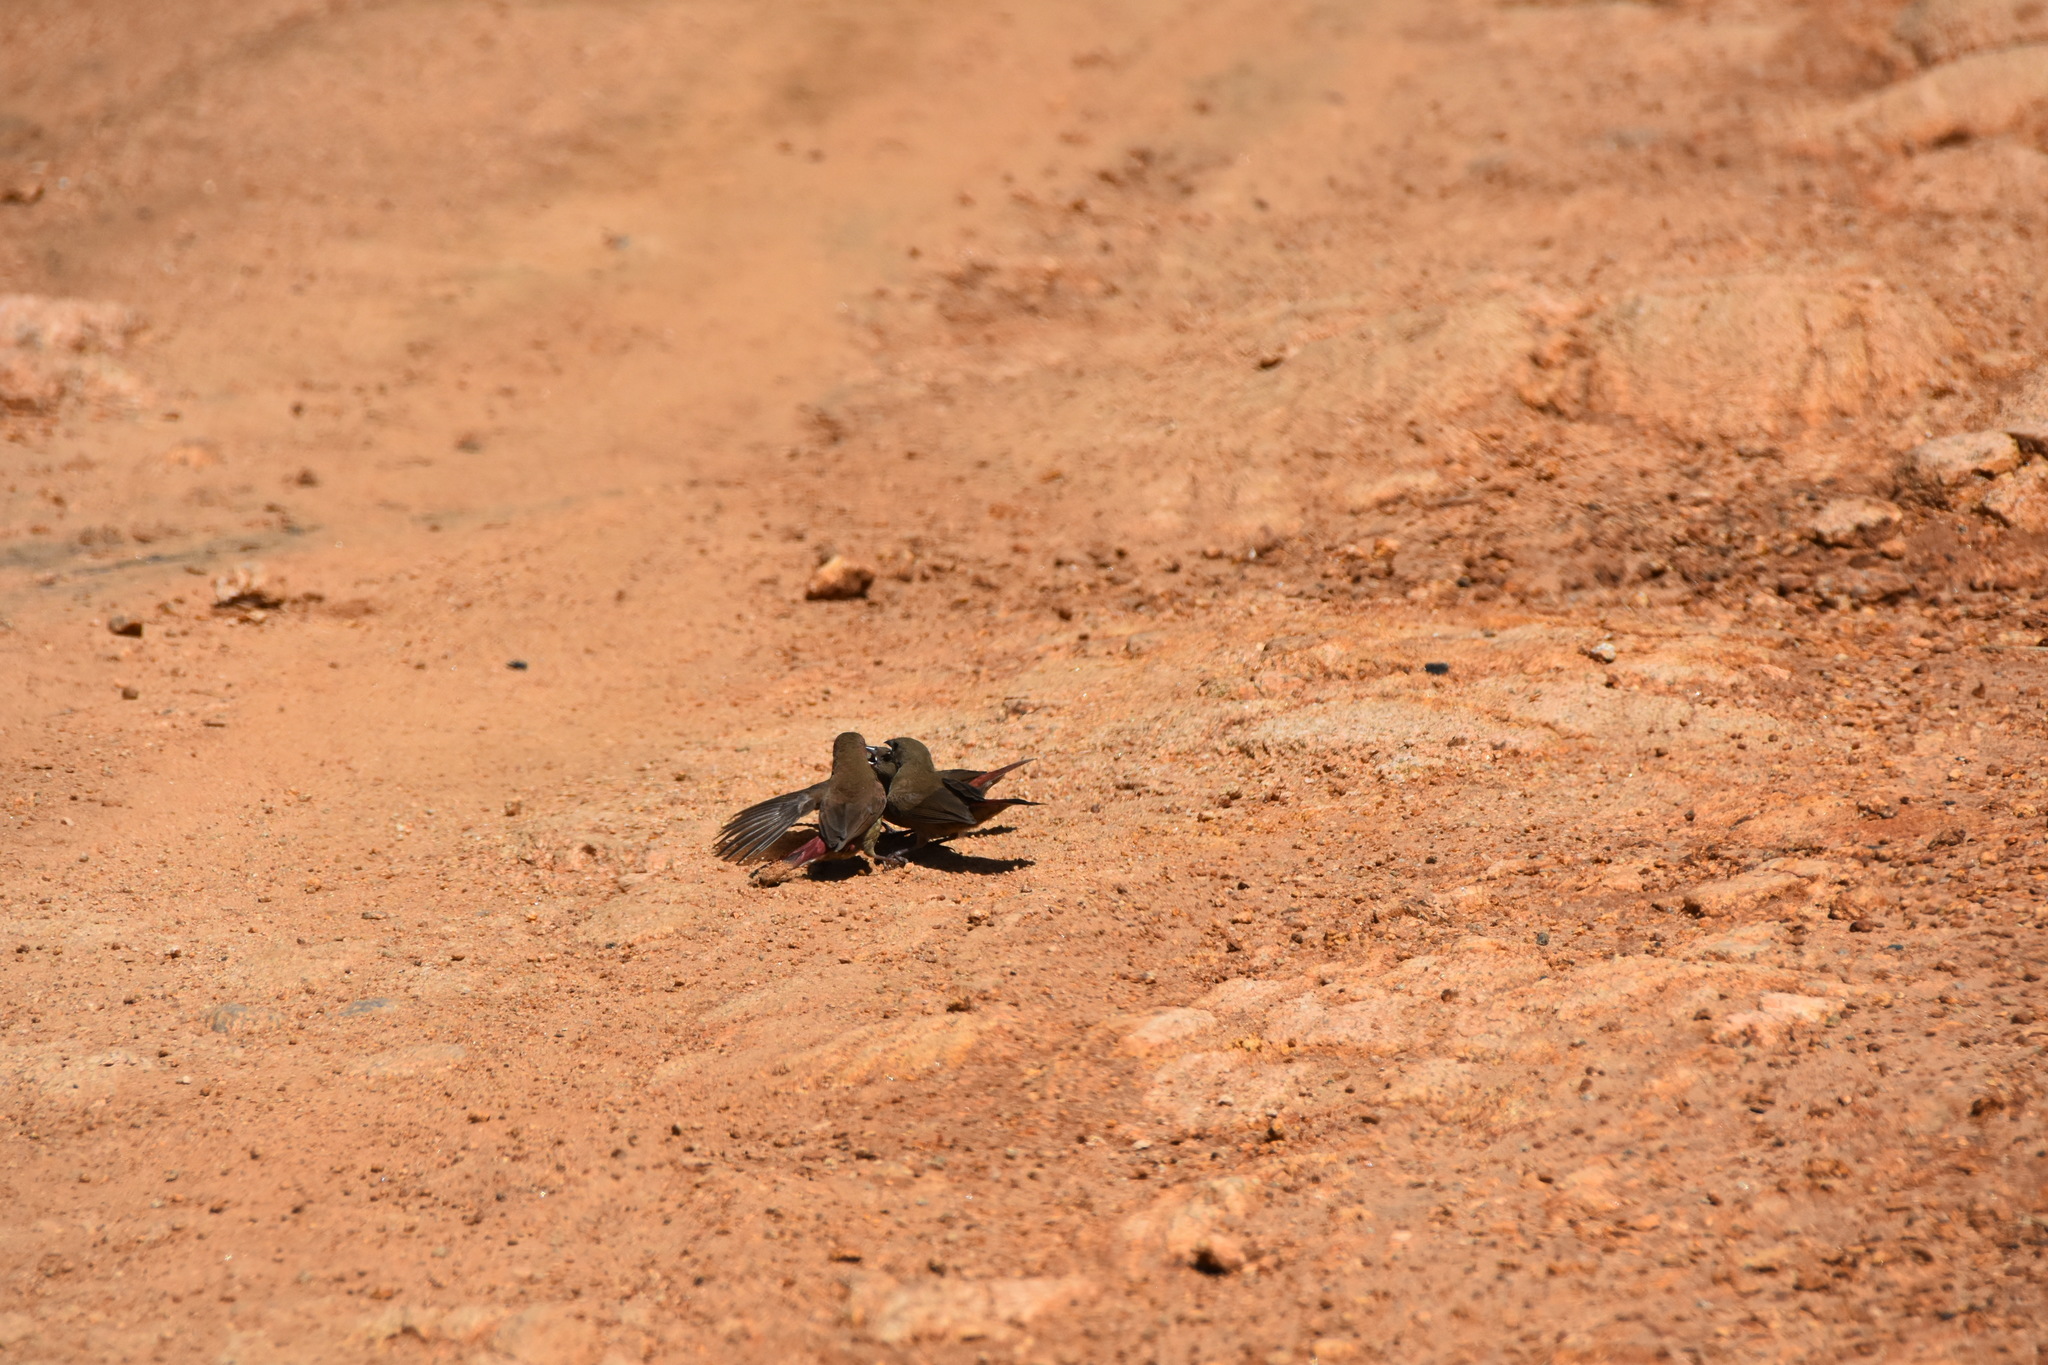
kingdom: Animalia
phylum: Chordata
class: Aves
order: Passeriformes
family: Estrildidae
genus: Lagonosticta
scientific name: Lagonosticta senegala
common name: Red-billed firefinch
